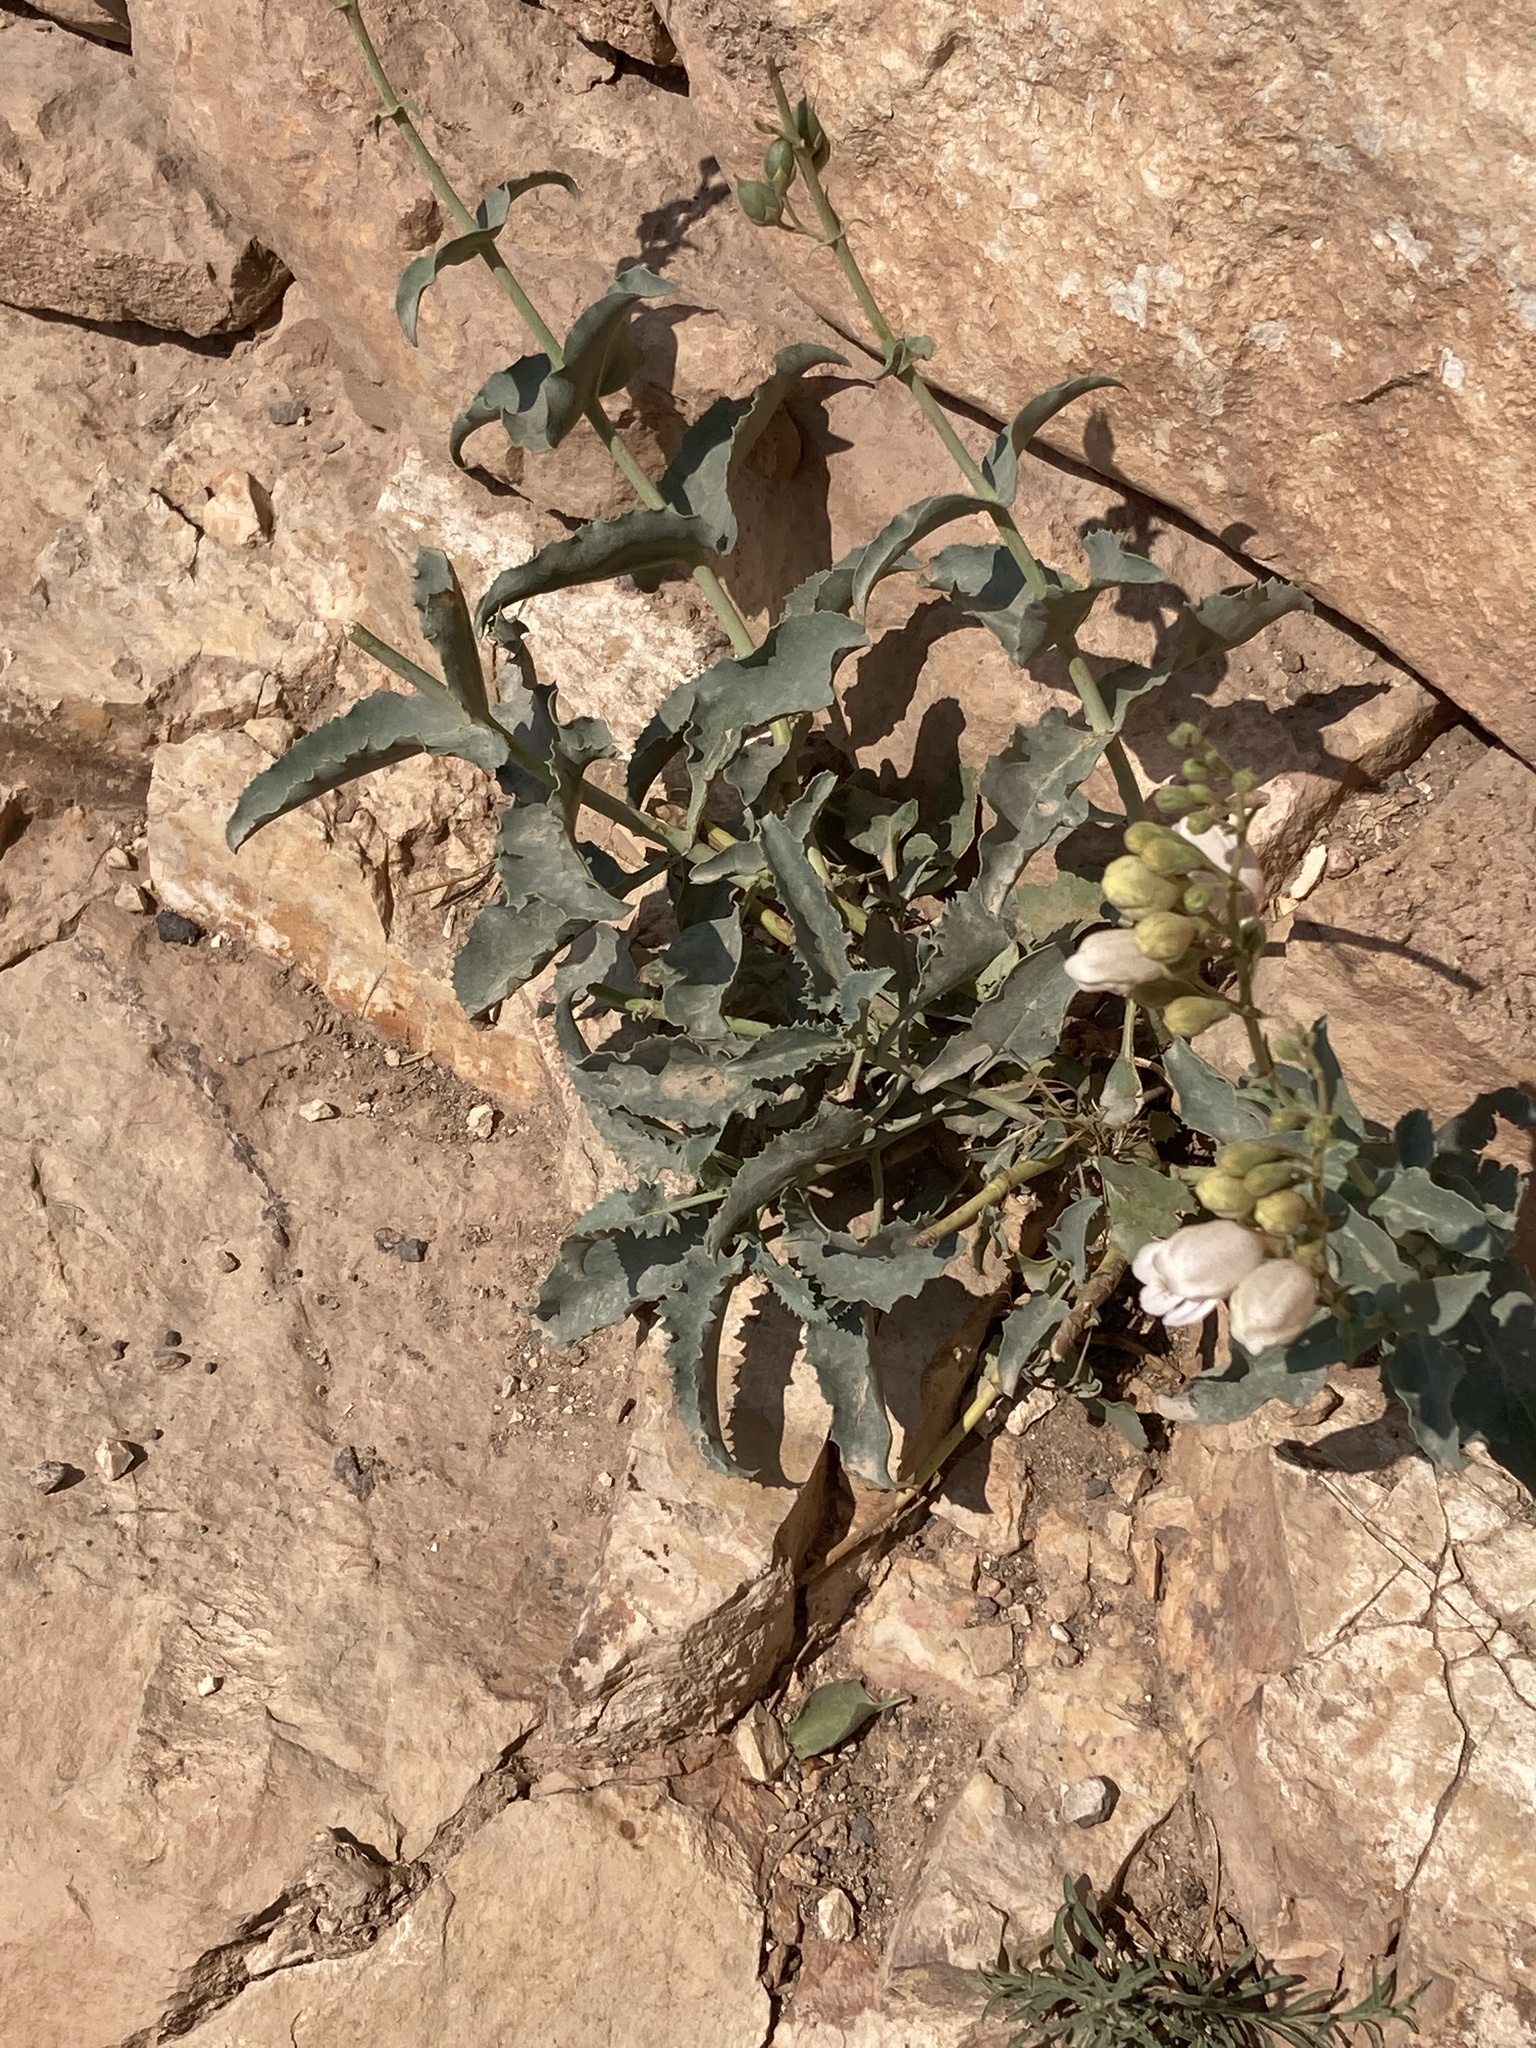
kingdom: Plantae
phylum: Tracheophyta
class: Magnoliopsida
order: Lamiales
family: Plantaginaceae
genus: Penstemon
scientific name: Penstemon palmeri
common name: Palmer penstemon
